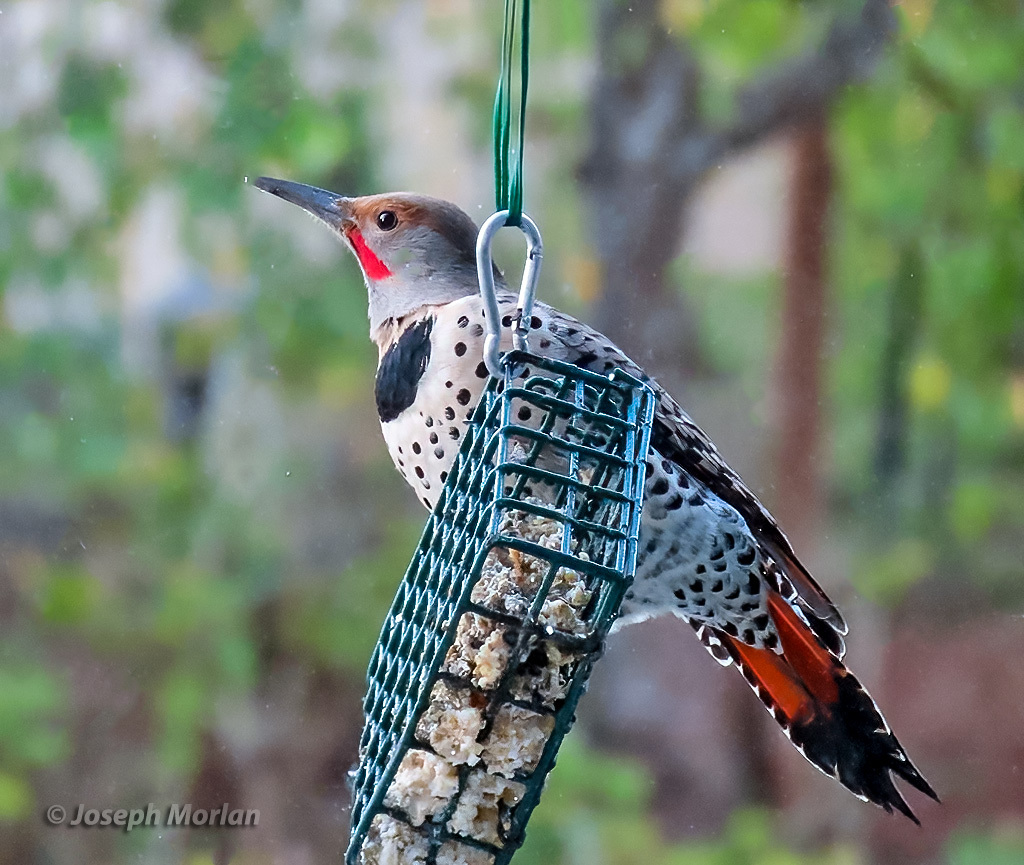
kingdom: Animalia
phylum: Chordata
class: Aves
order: Piciformes
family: Picidae
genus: Colaptes
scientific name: Colaptes auratus
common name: Northern flicker
